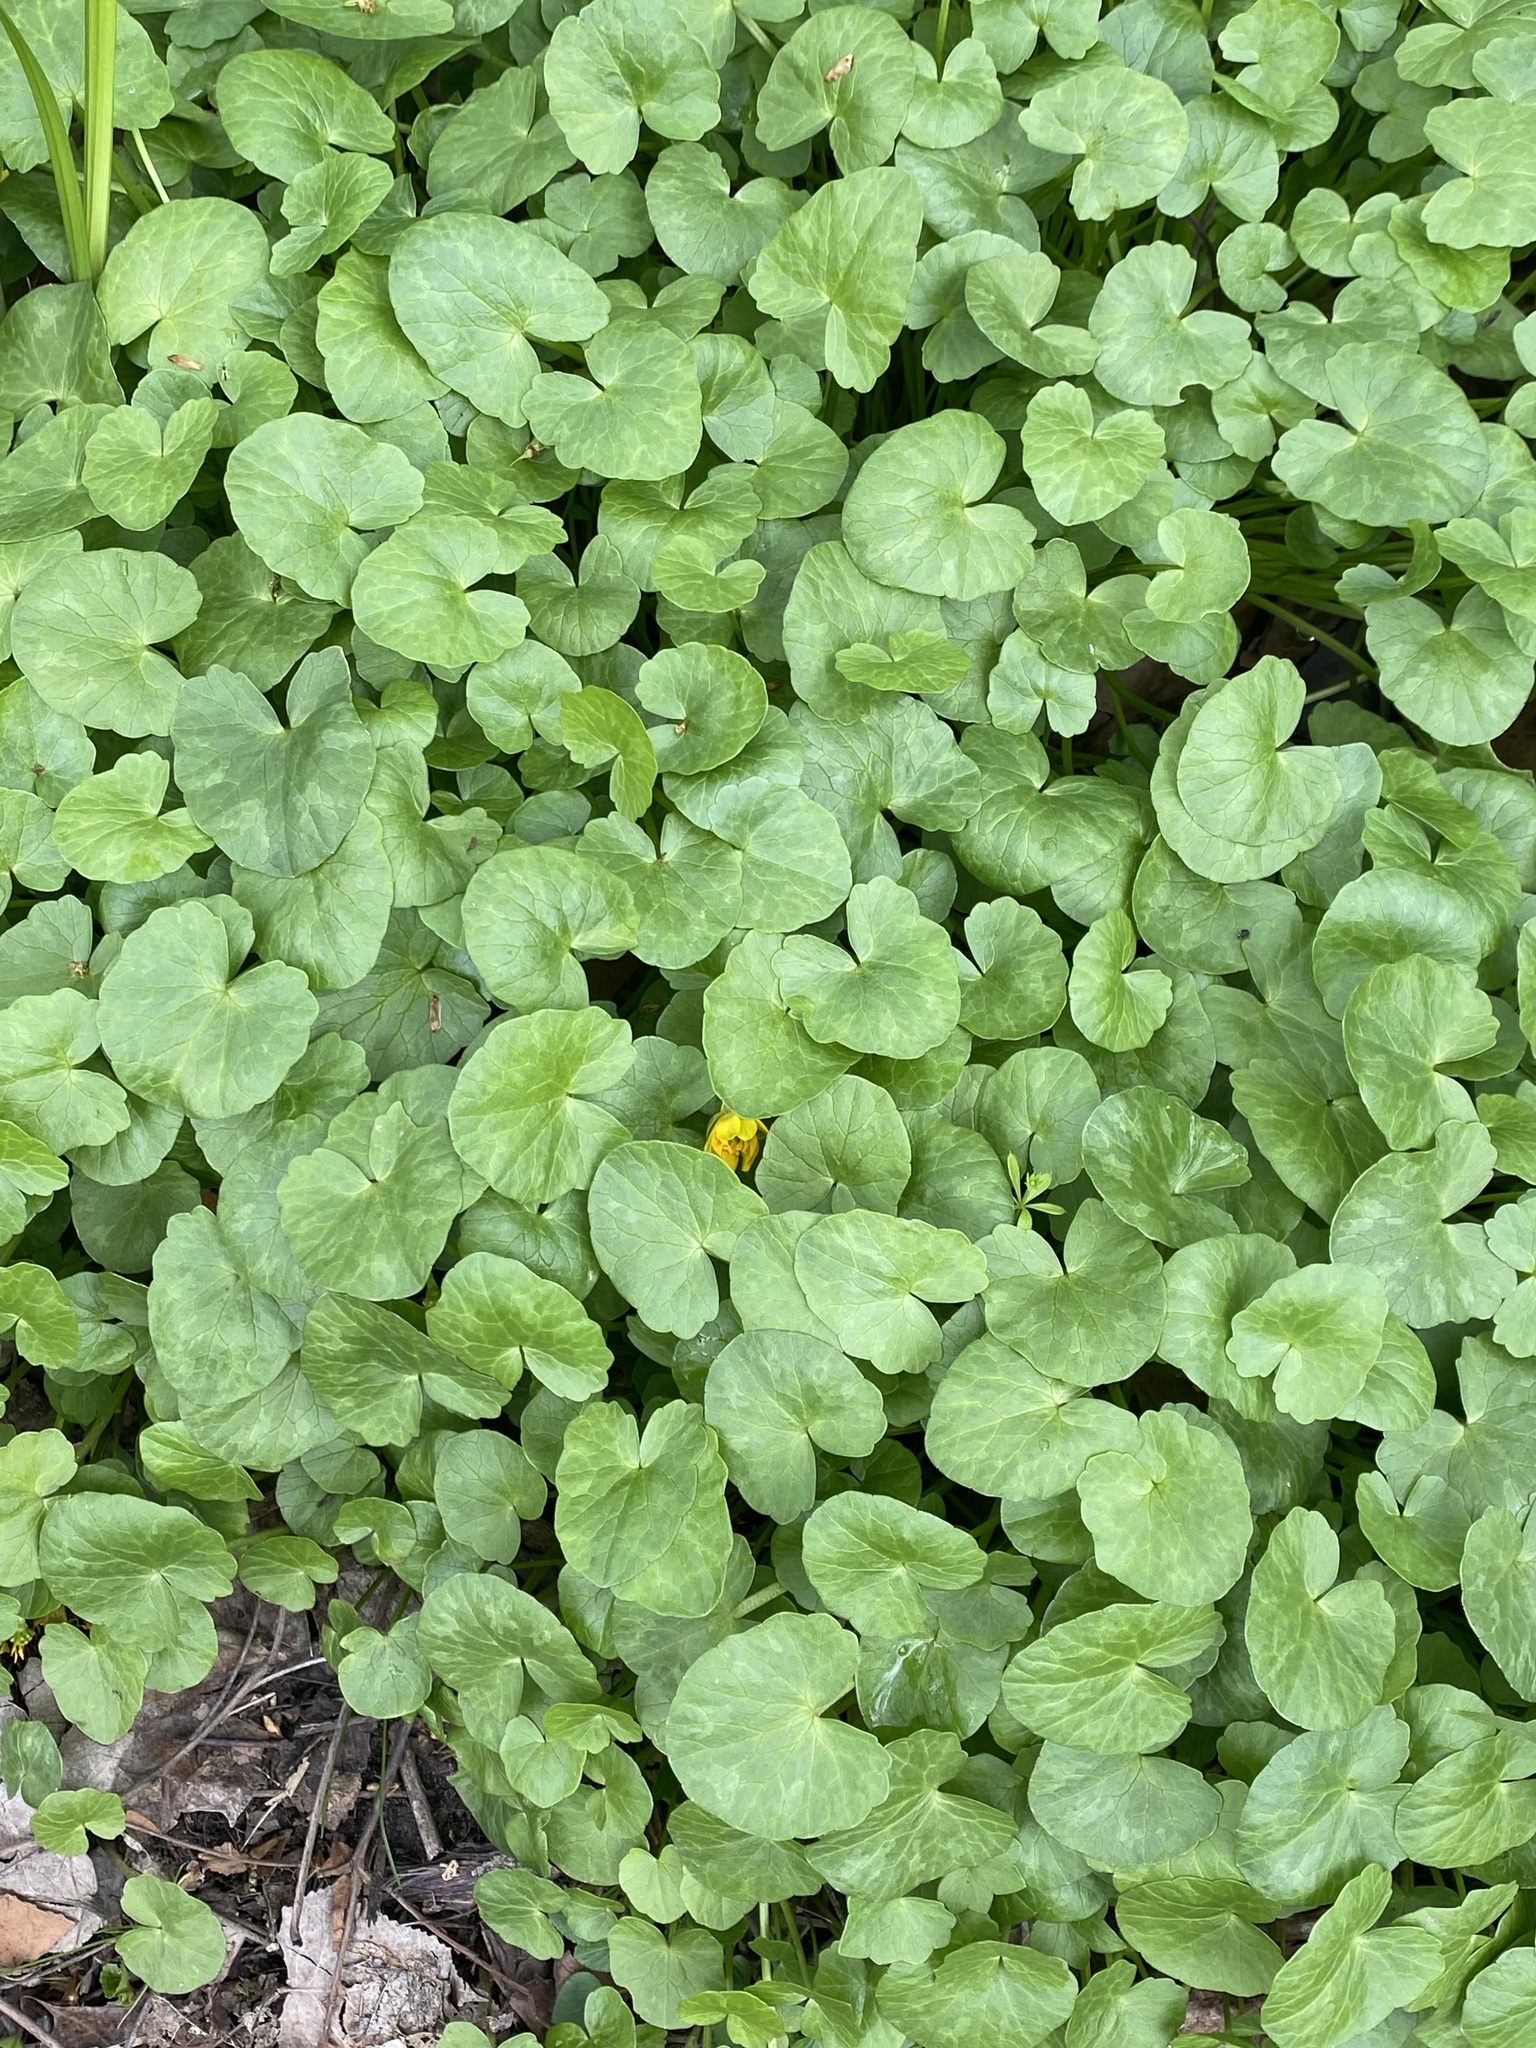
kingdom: Plantae
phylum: Tracheophyta
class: Magnoliopsida
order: Ranunculales
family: Ranunculaceae
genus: Ficaria
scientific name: Ficaria verna
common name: Lesser celandine
